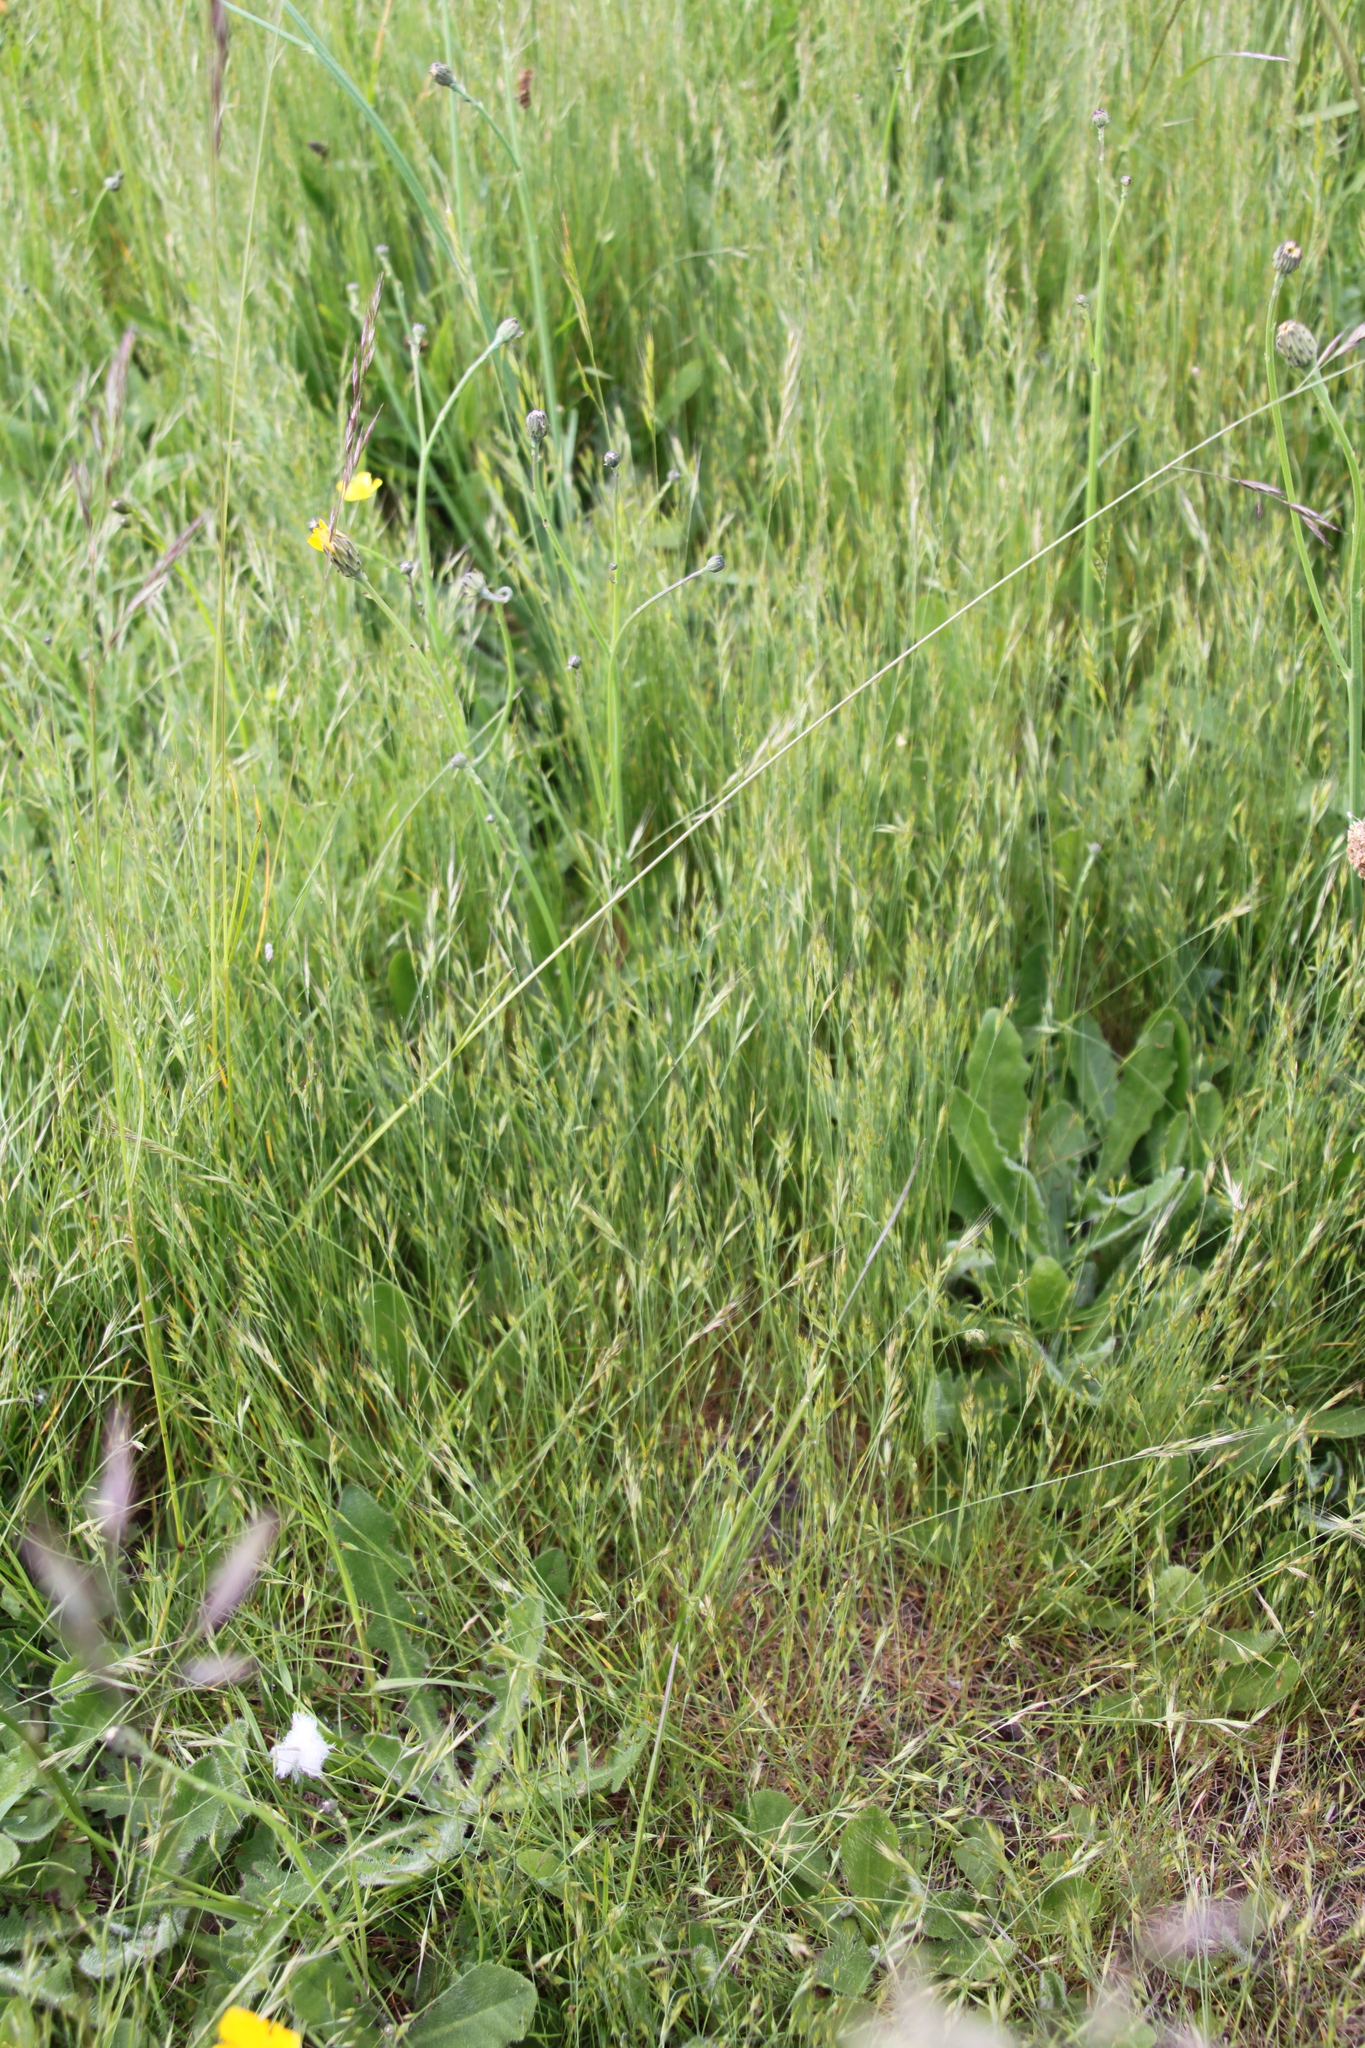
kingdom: Plantae
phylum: Tracheophyta
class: Liliopsida
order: Poales
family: Poaceae
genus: Bromus
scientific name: Bromus hordeaceus
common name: Soft brome
